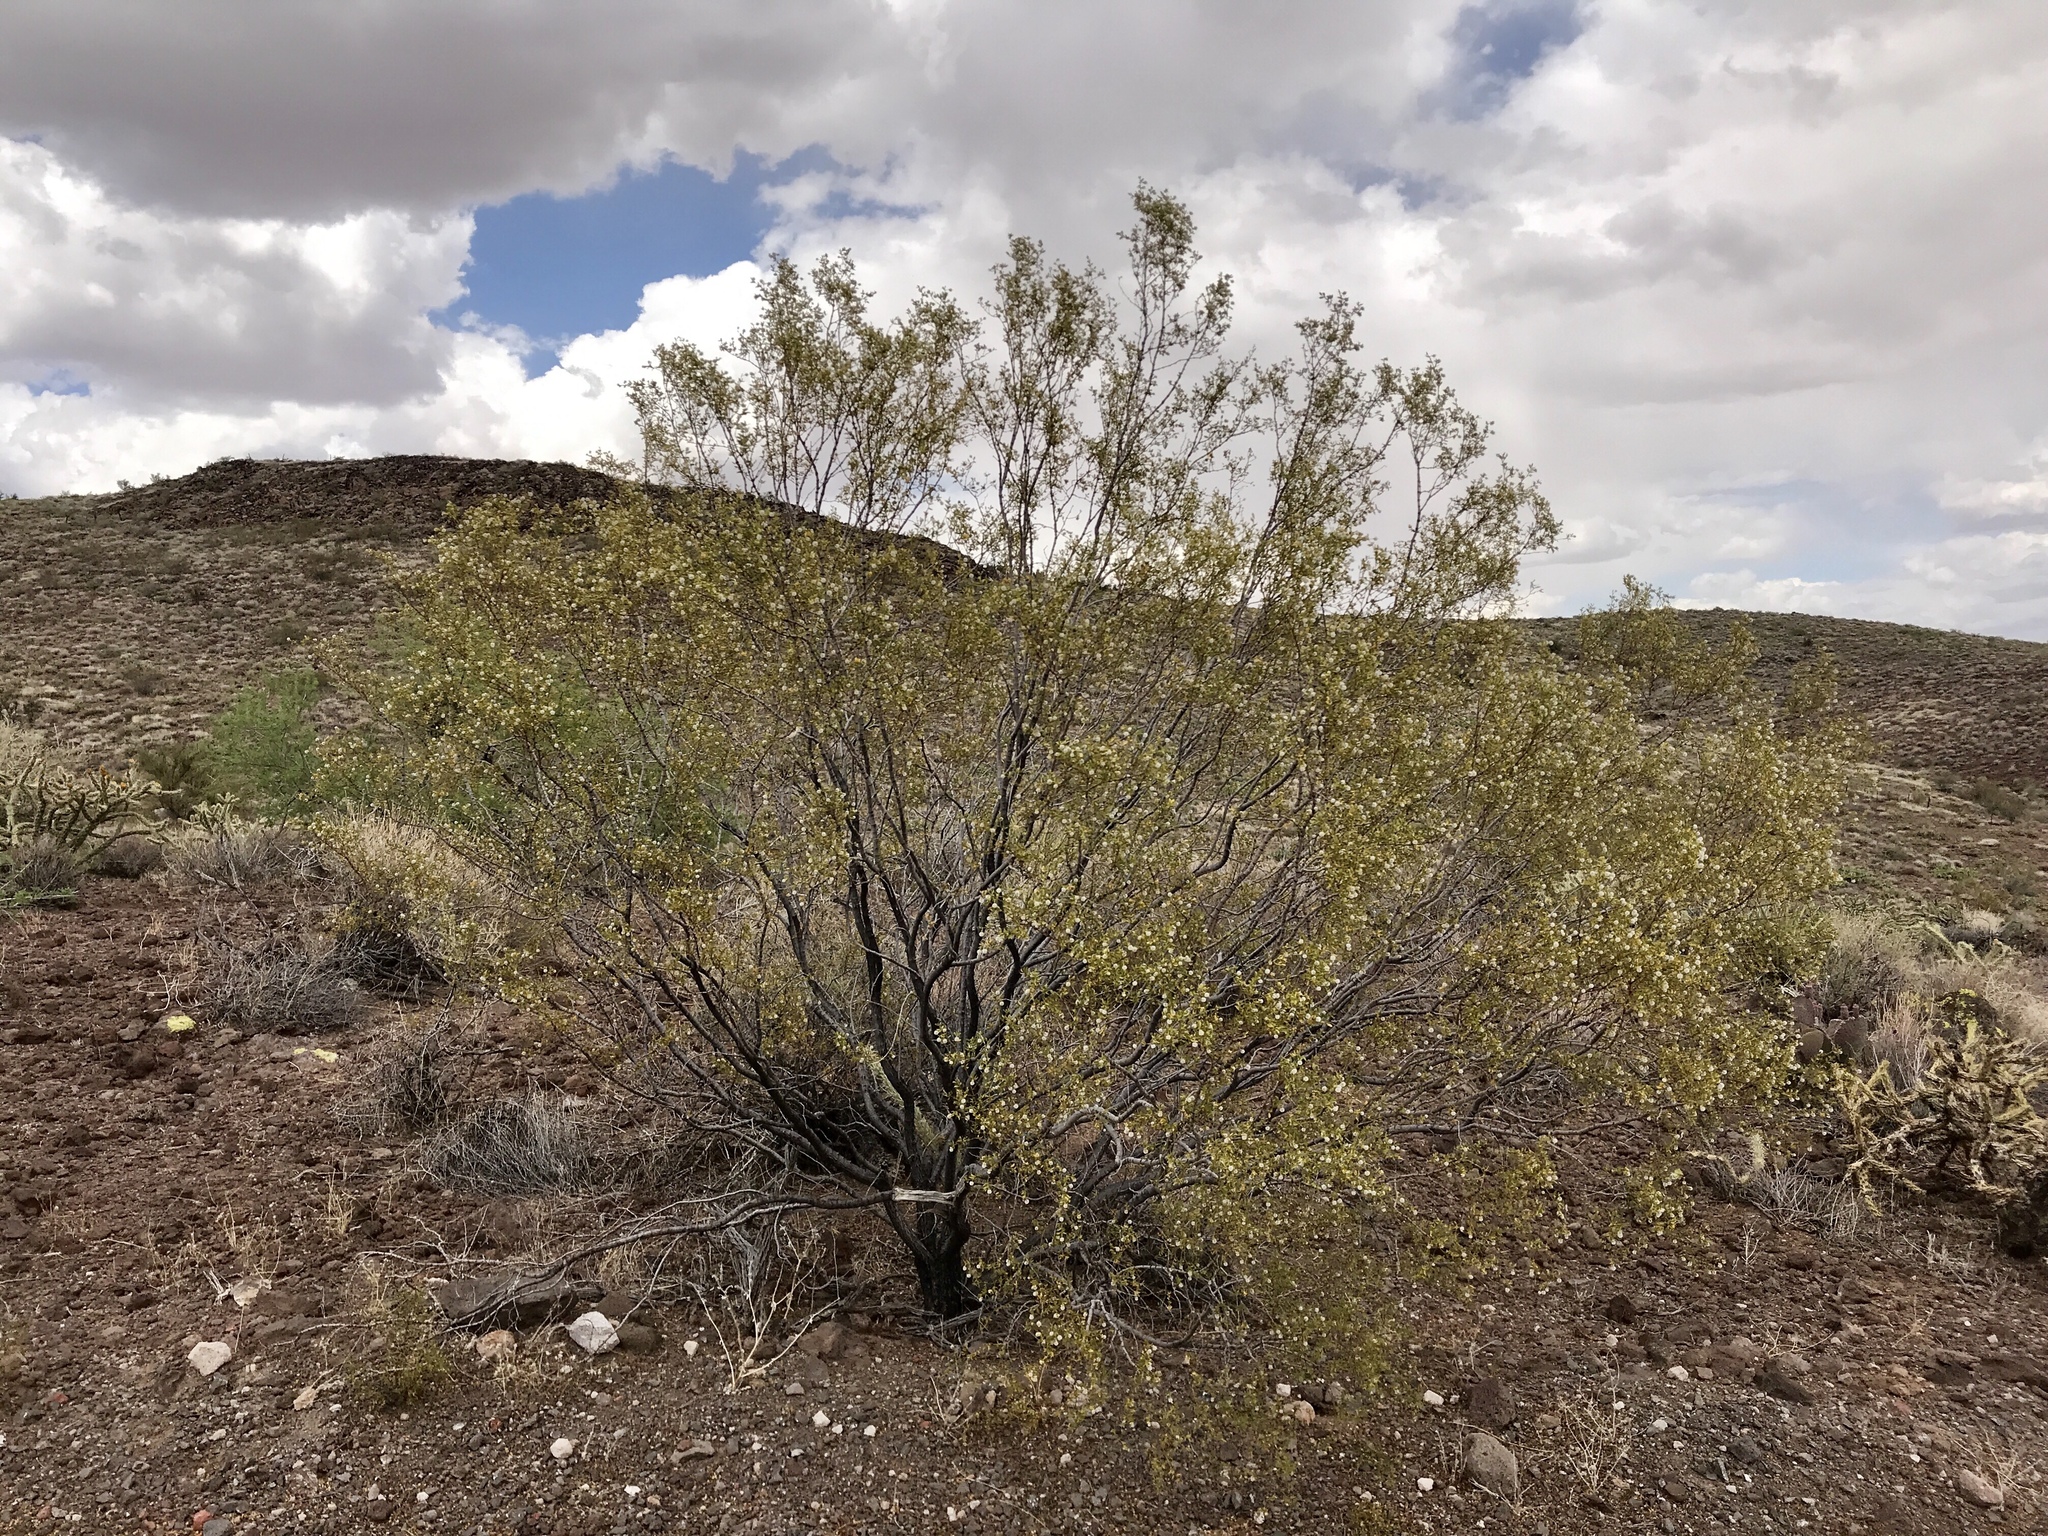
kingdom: Plantae
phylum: Tracheophyta
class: Magnoliopsida
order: Zygophyllales
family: Zygophyllaceae
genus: Larrea
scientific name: Larrea tridentata
